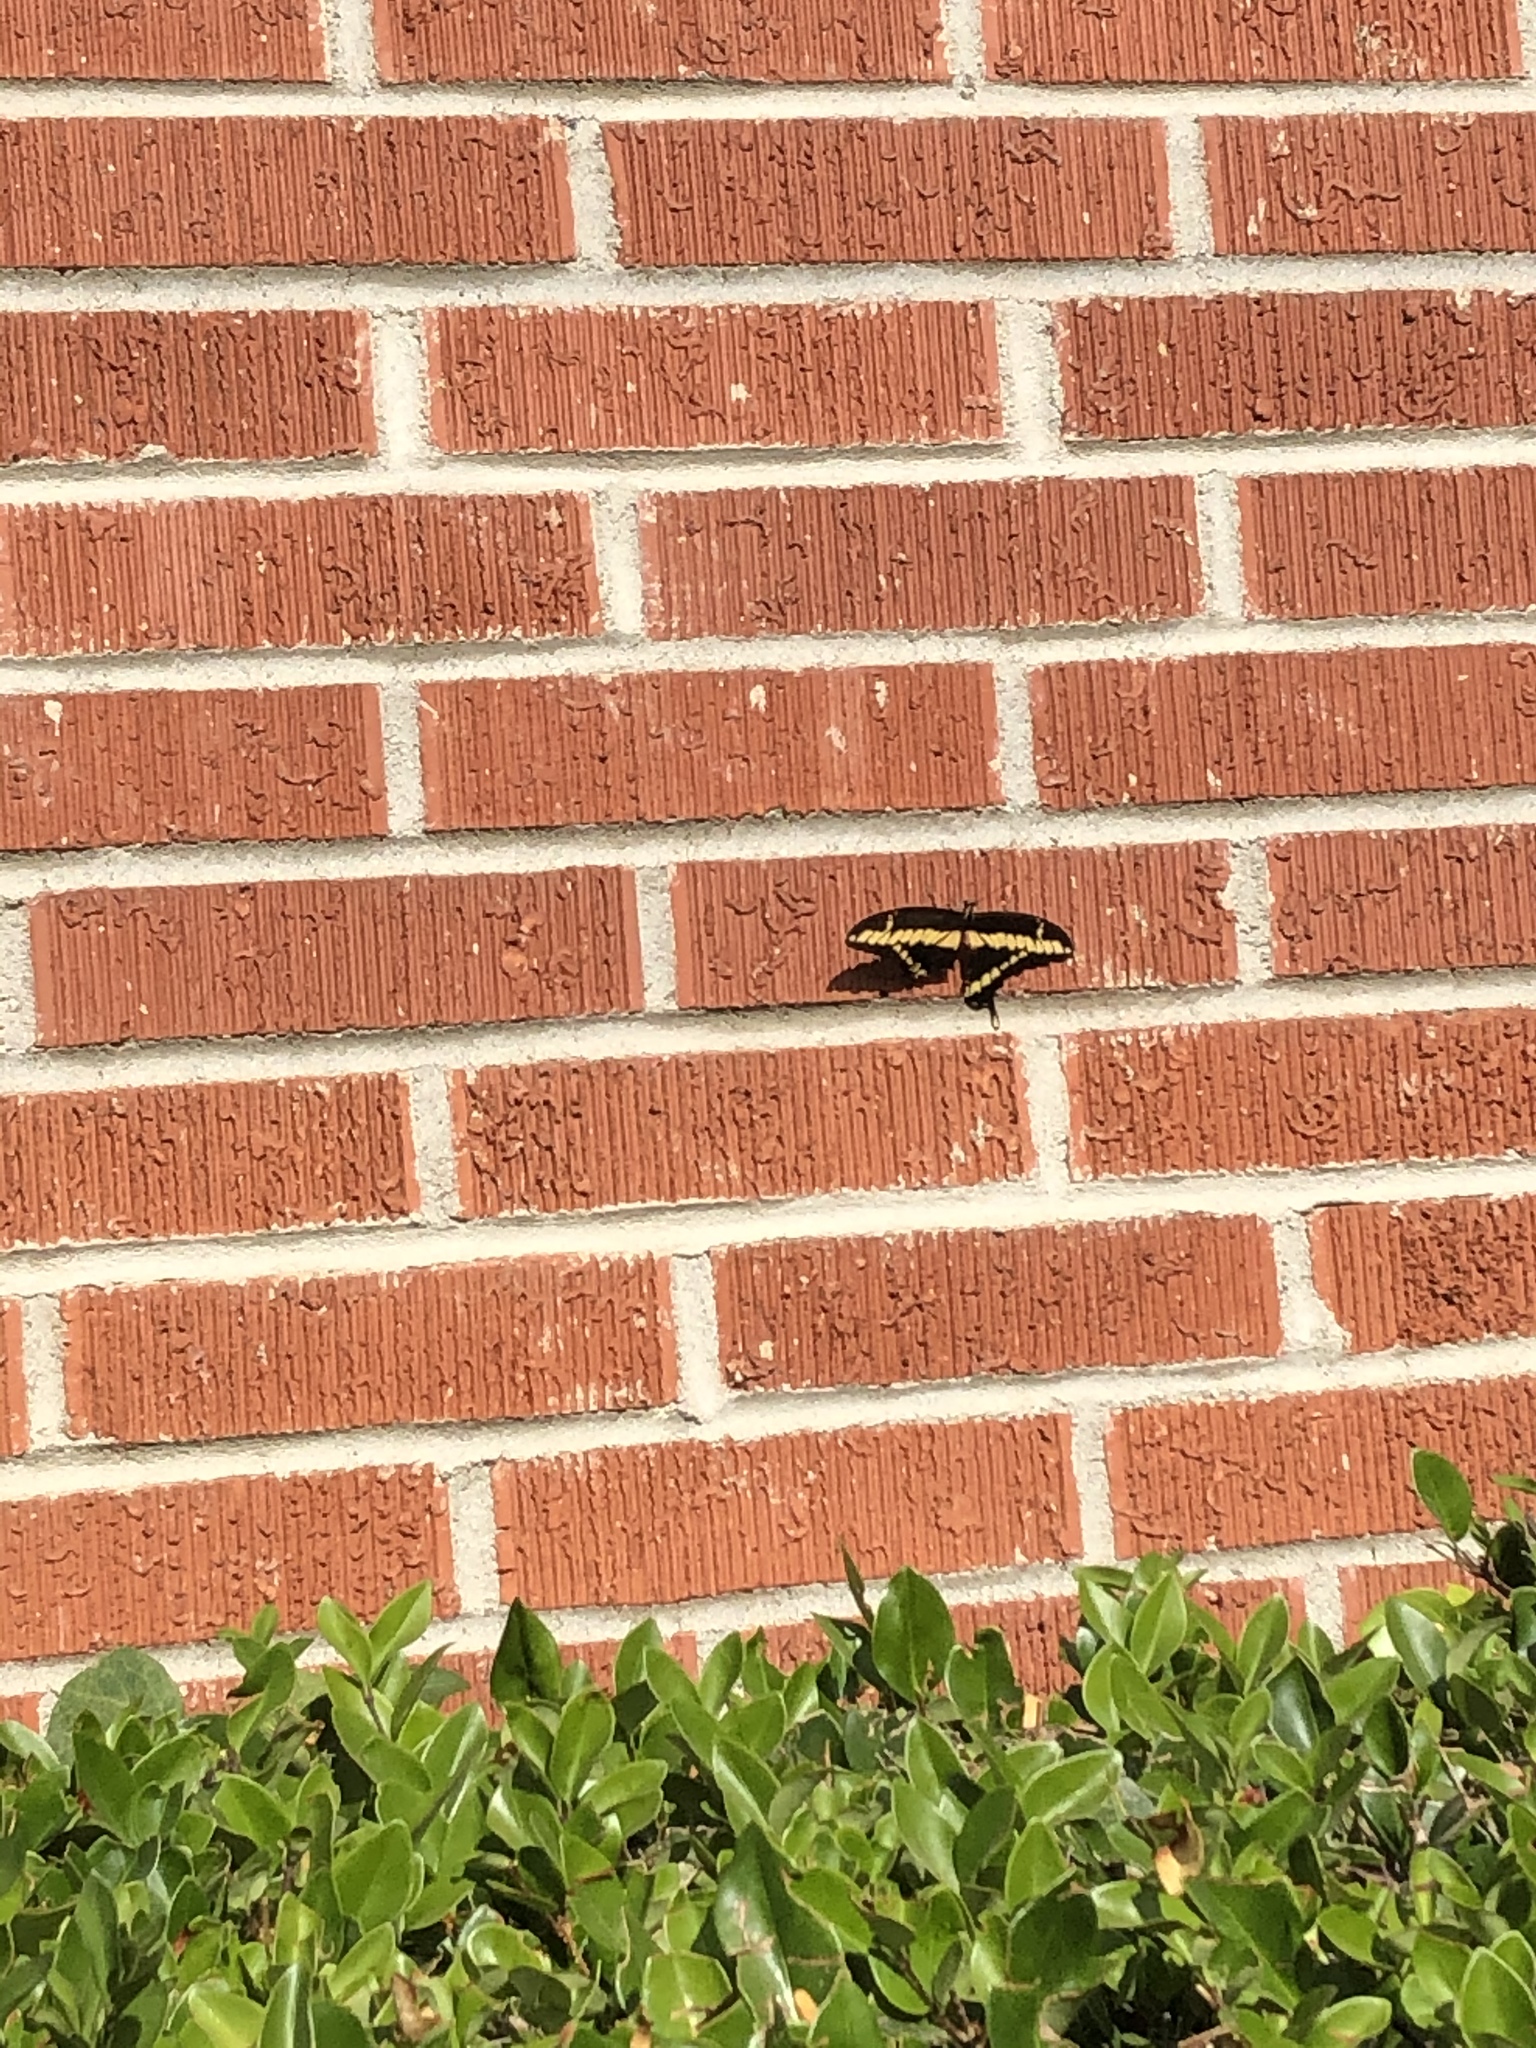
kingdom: Animalia
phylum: Arthropoda
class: Insecta
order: Lepidoptera
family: Papilionidae
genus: Papilio
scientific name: Papilio rumiko
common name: Western giant swallowtail
